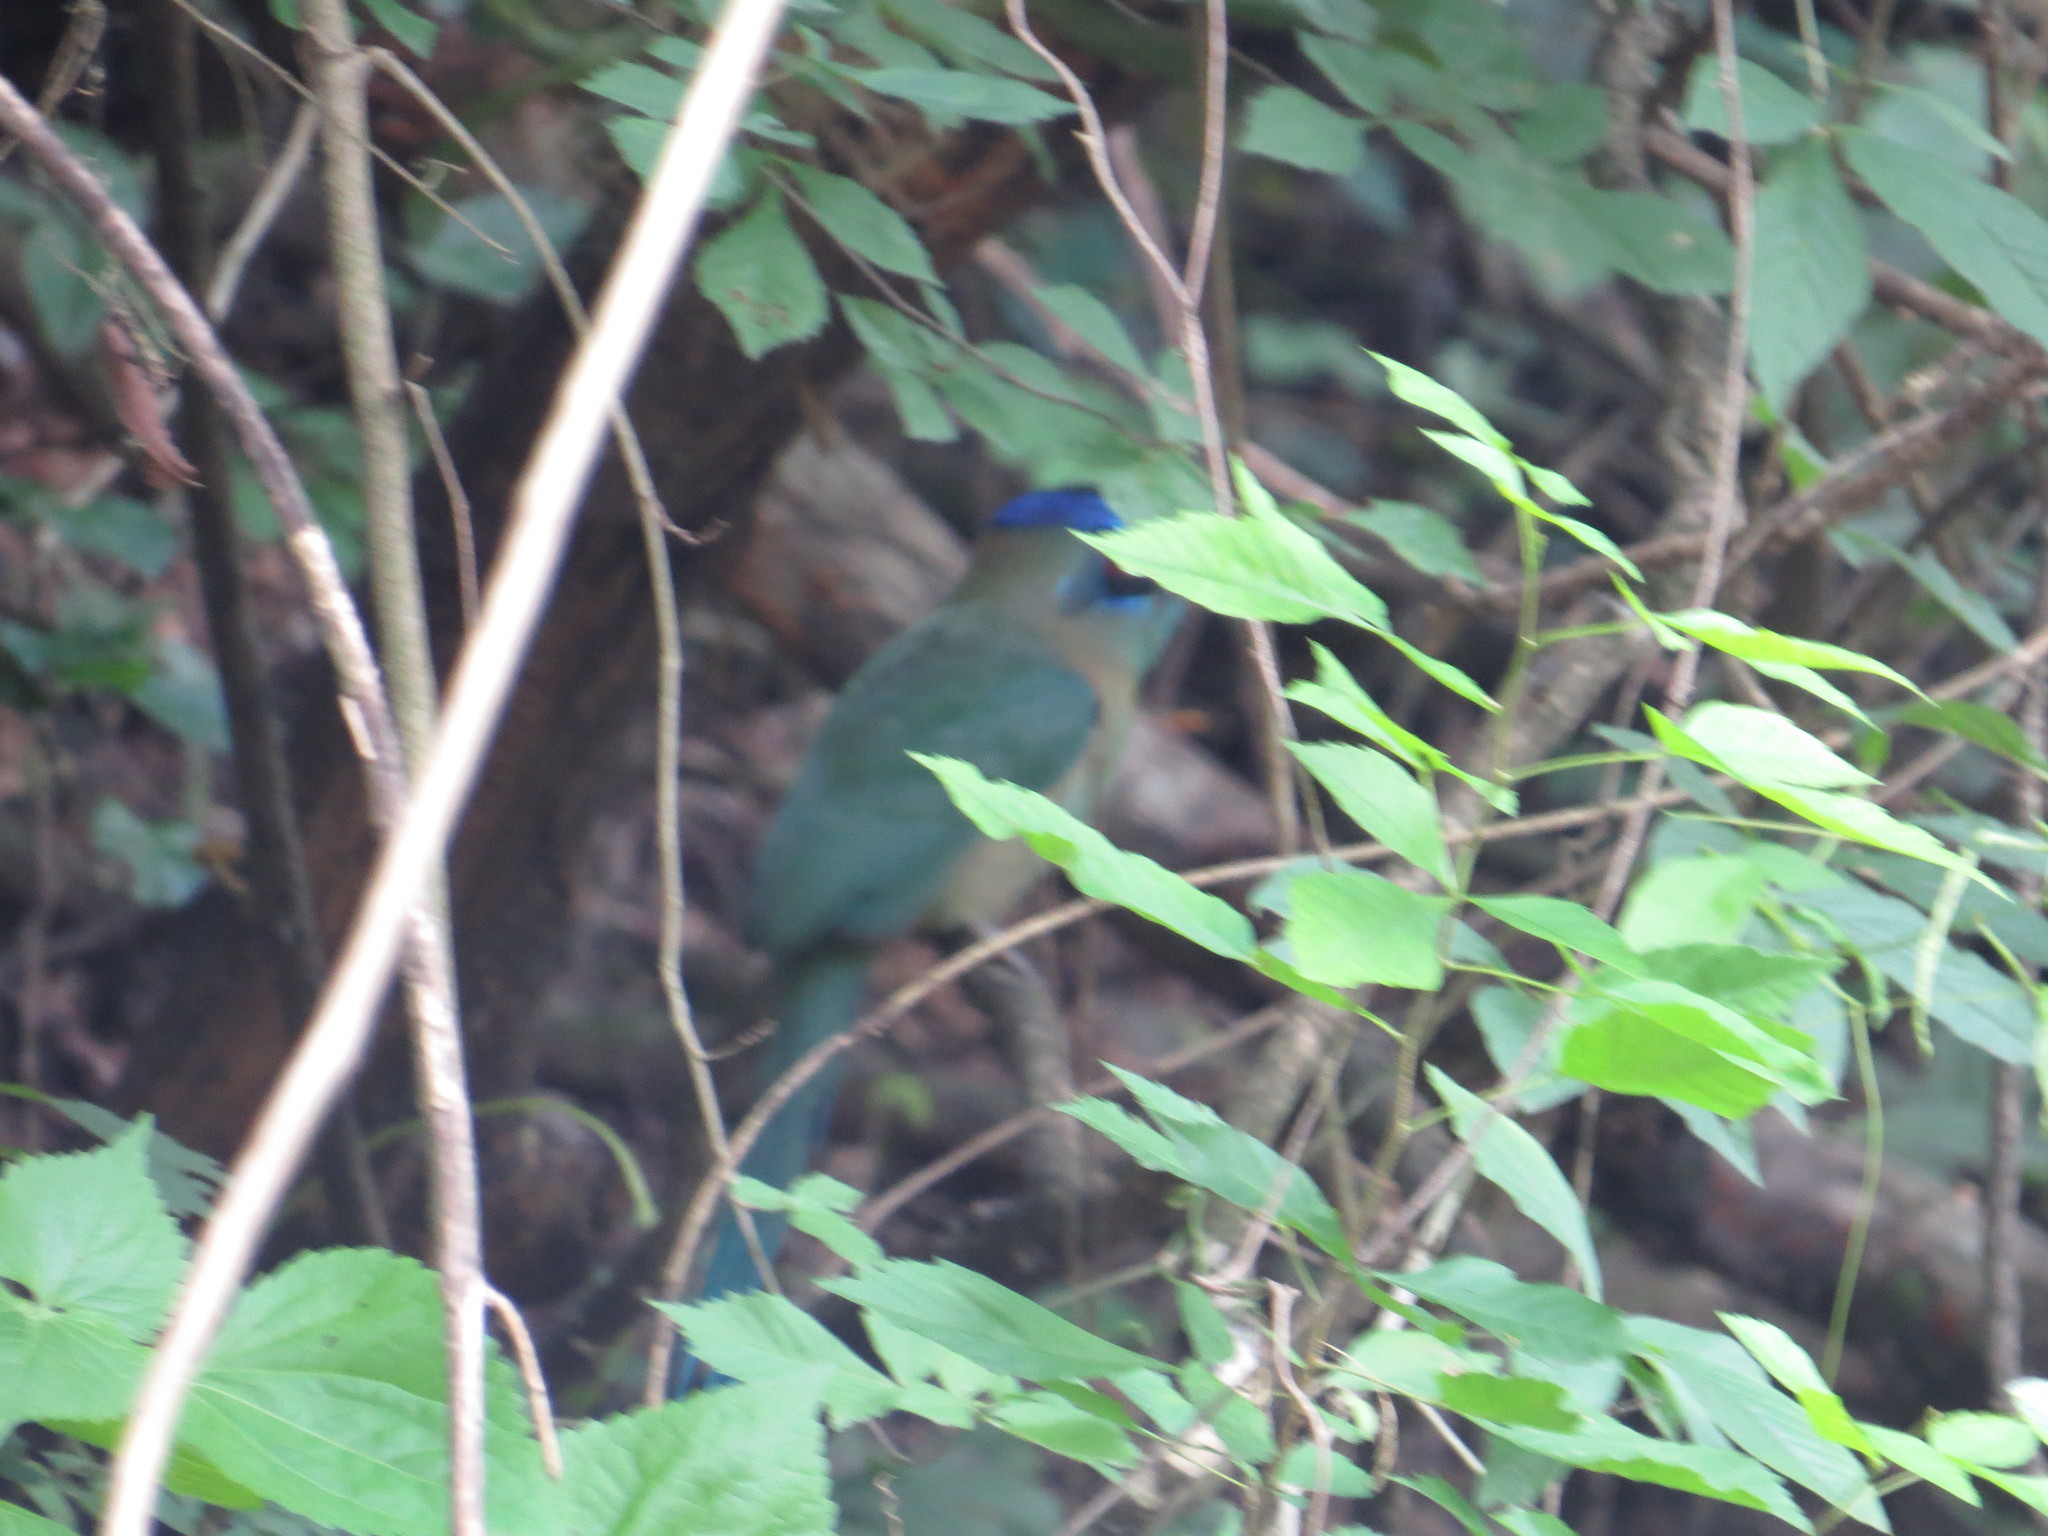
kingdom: Animalia
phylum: Chordata
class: Aves
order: Coraciiformes
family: Momotidae
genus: Momotus
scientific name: Momotus momota
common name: Amazonian motmot
